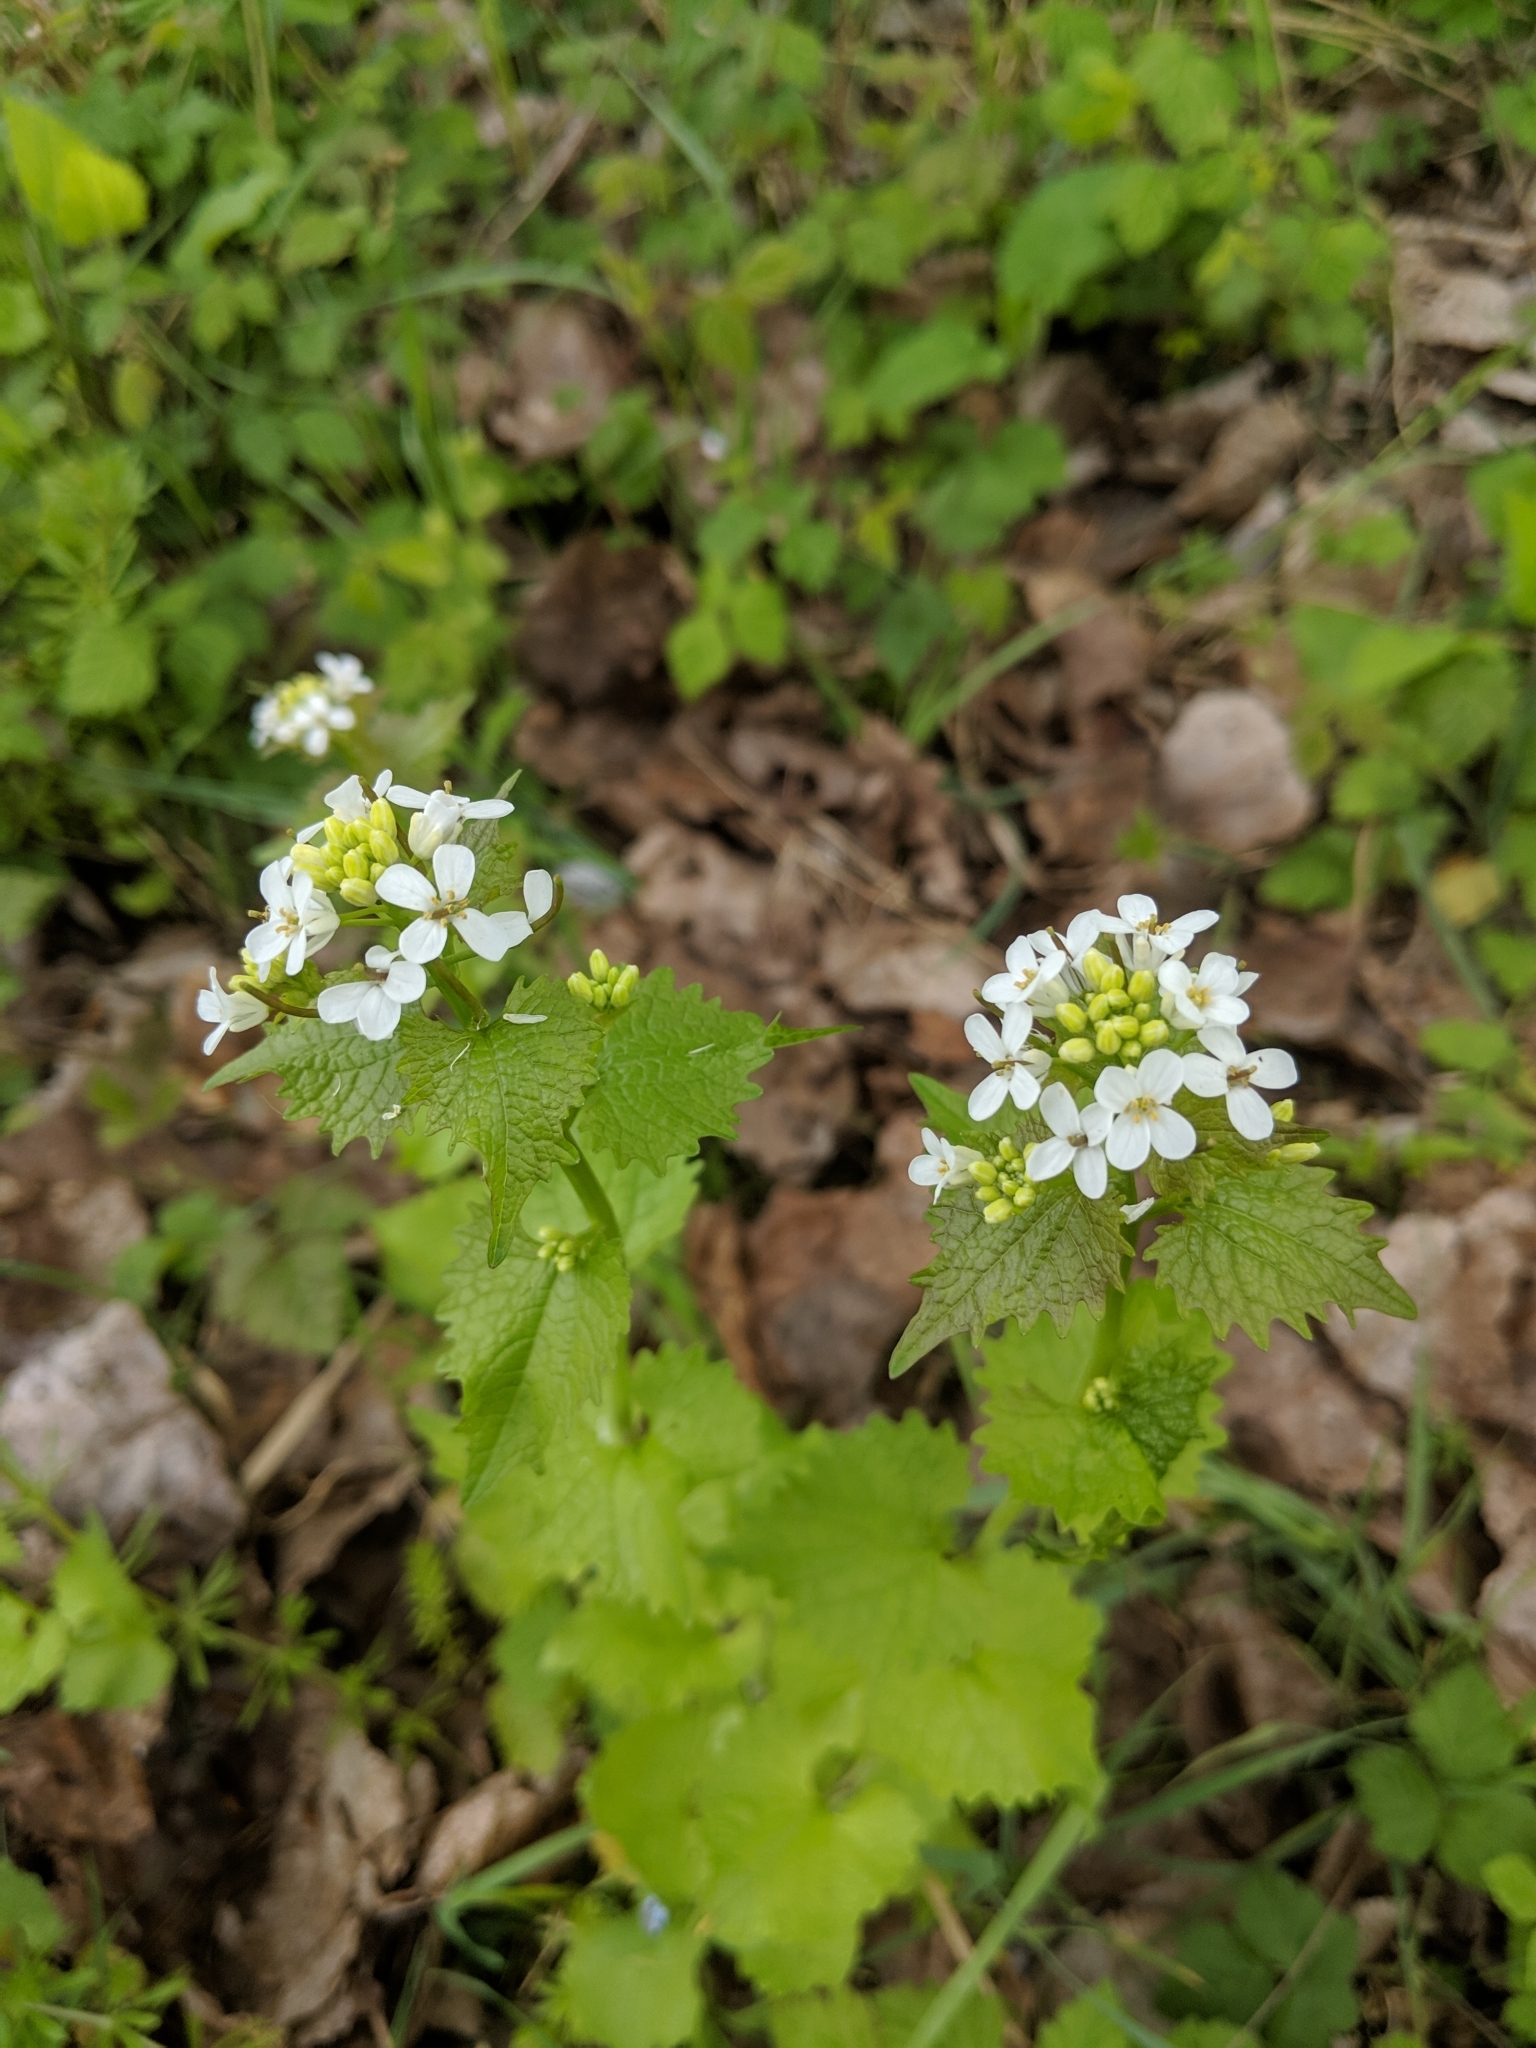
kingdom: Plantae
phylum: Tracheophyta
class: Magnoliopsida
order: Brassicales
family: Brassicaceae
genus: Alliaria
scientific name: Alliaria petiolata
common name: Garlic mustard
